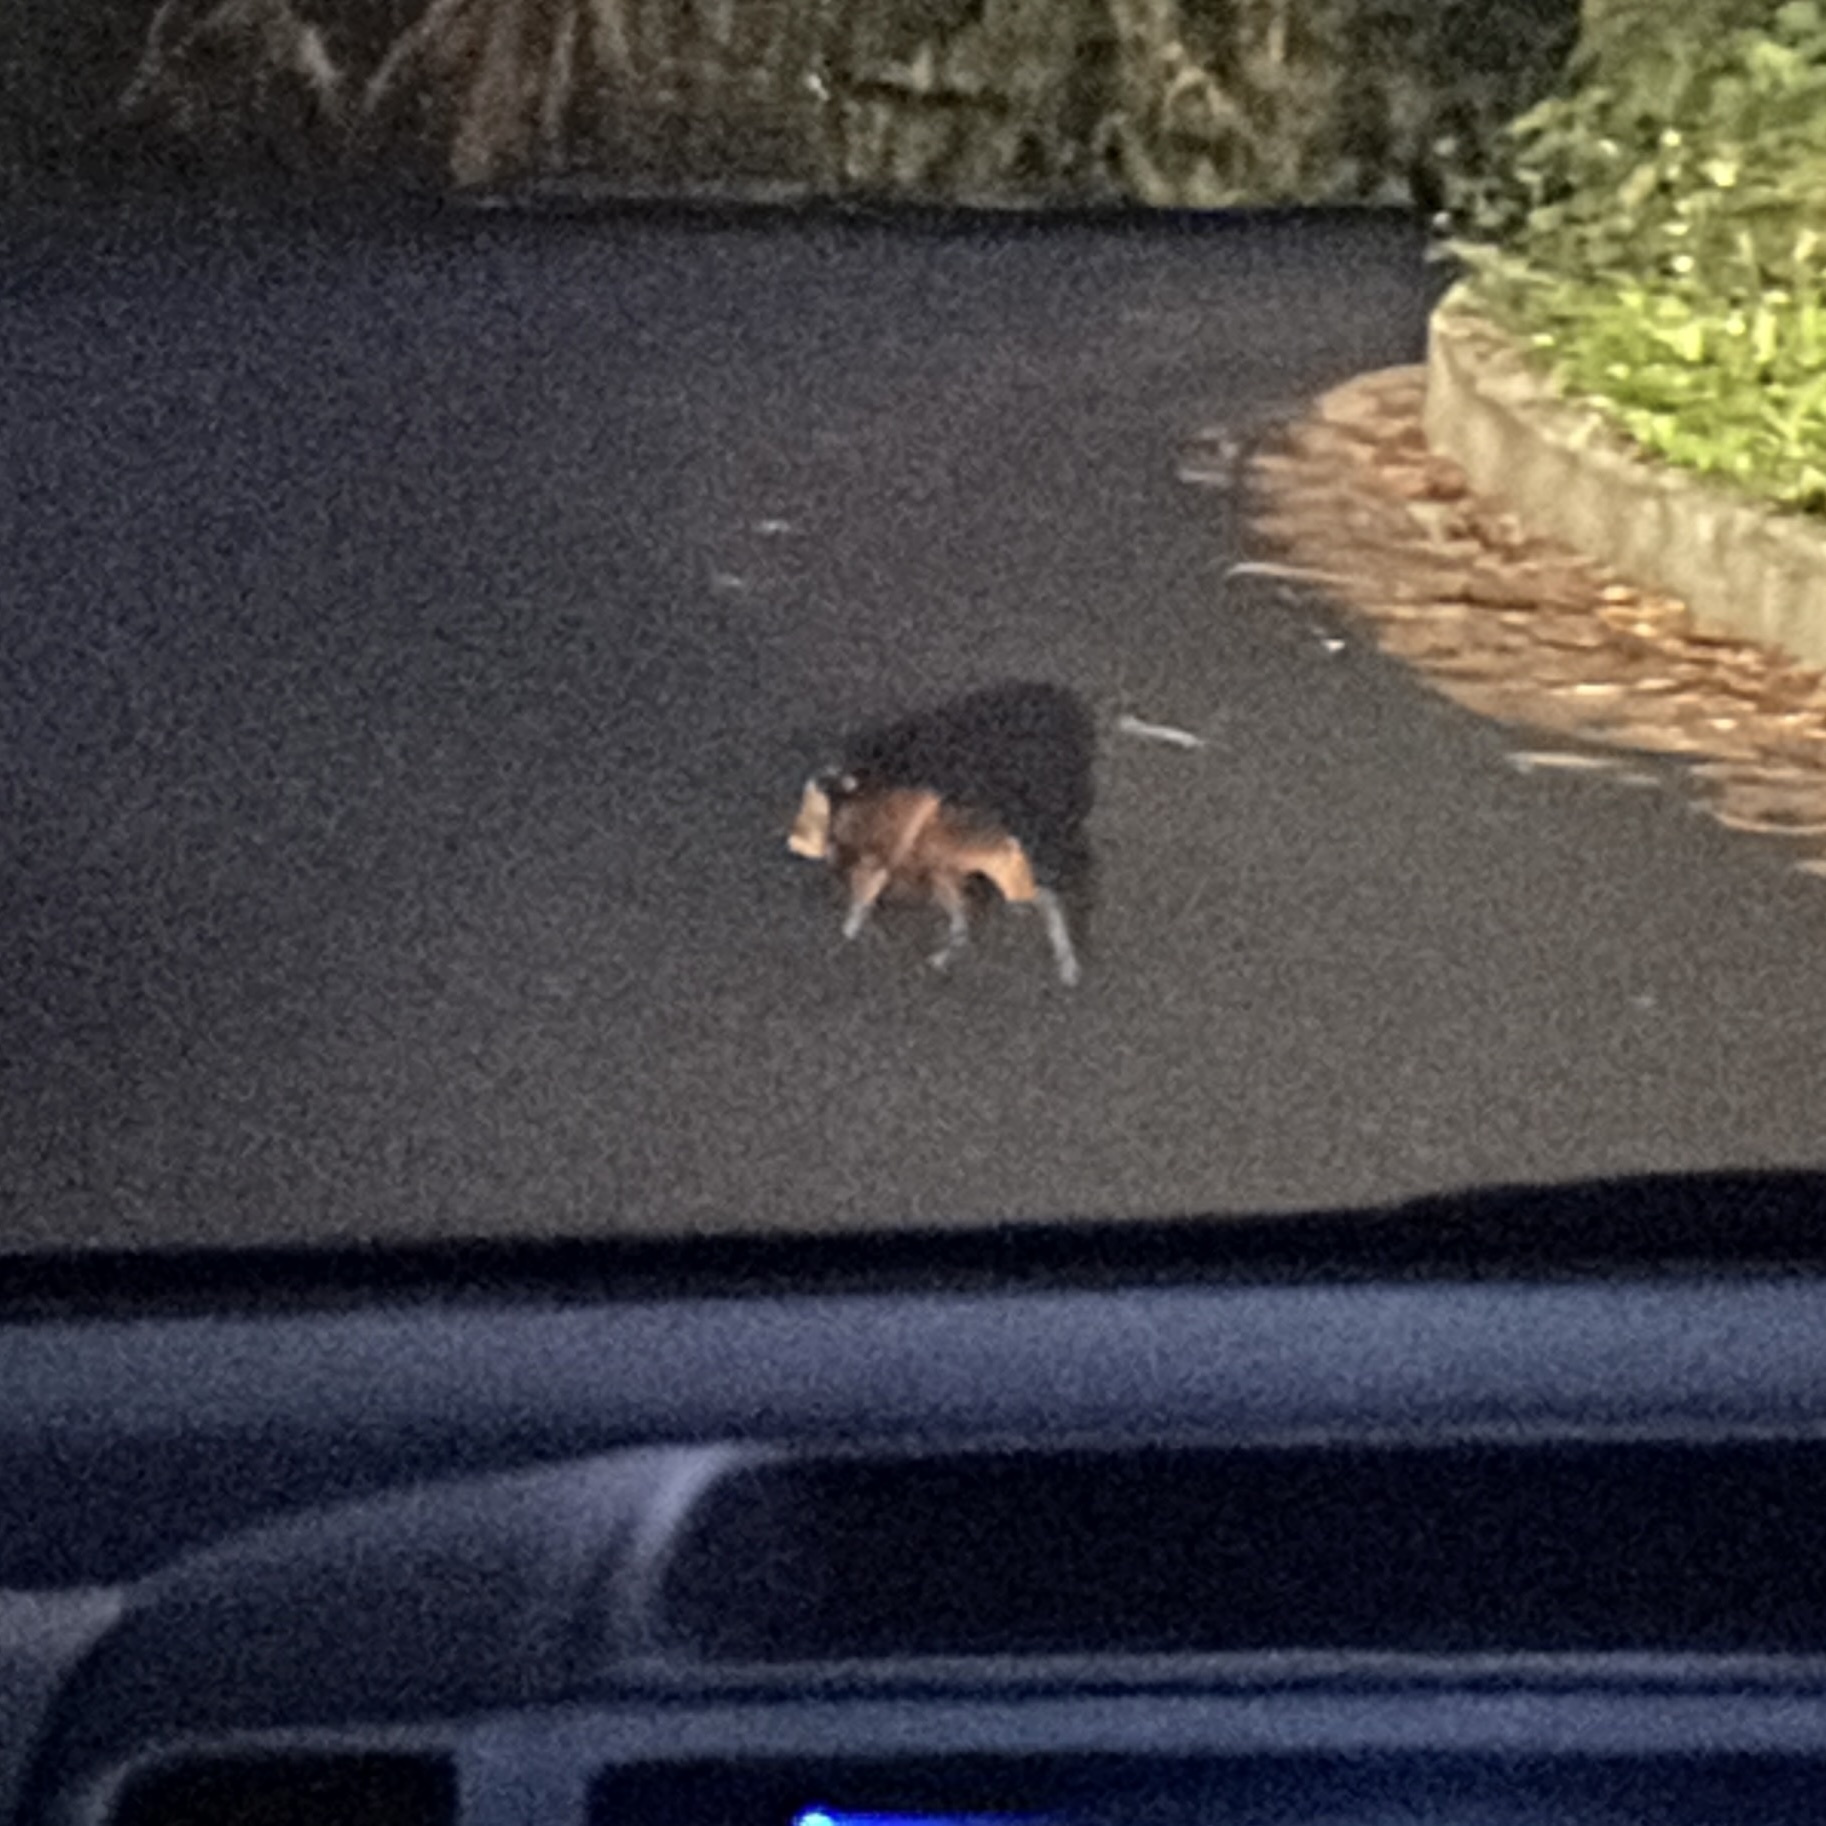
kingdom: Animalia
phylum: Chordata
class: Mammalia
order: Rodentia
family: Dasyproctidae
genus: Dasyprocta
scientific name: Dasyprocta leporina
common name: Red-rumped agouti
